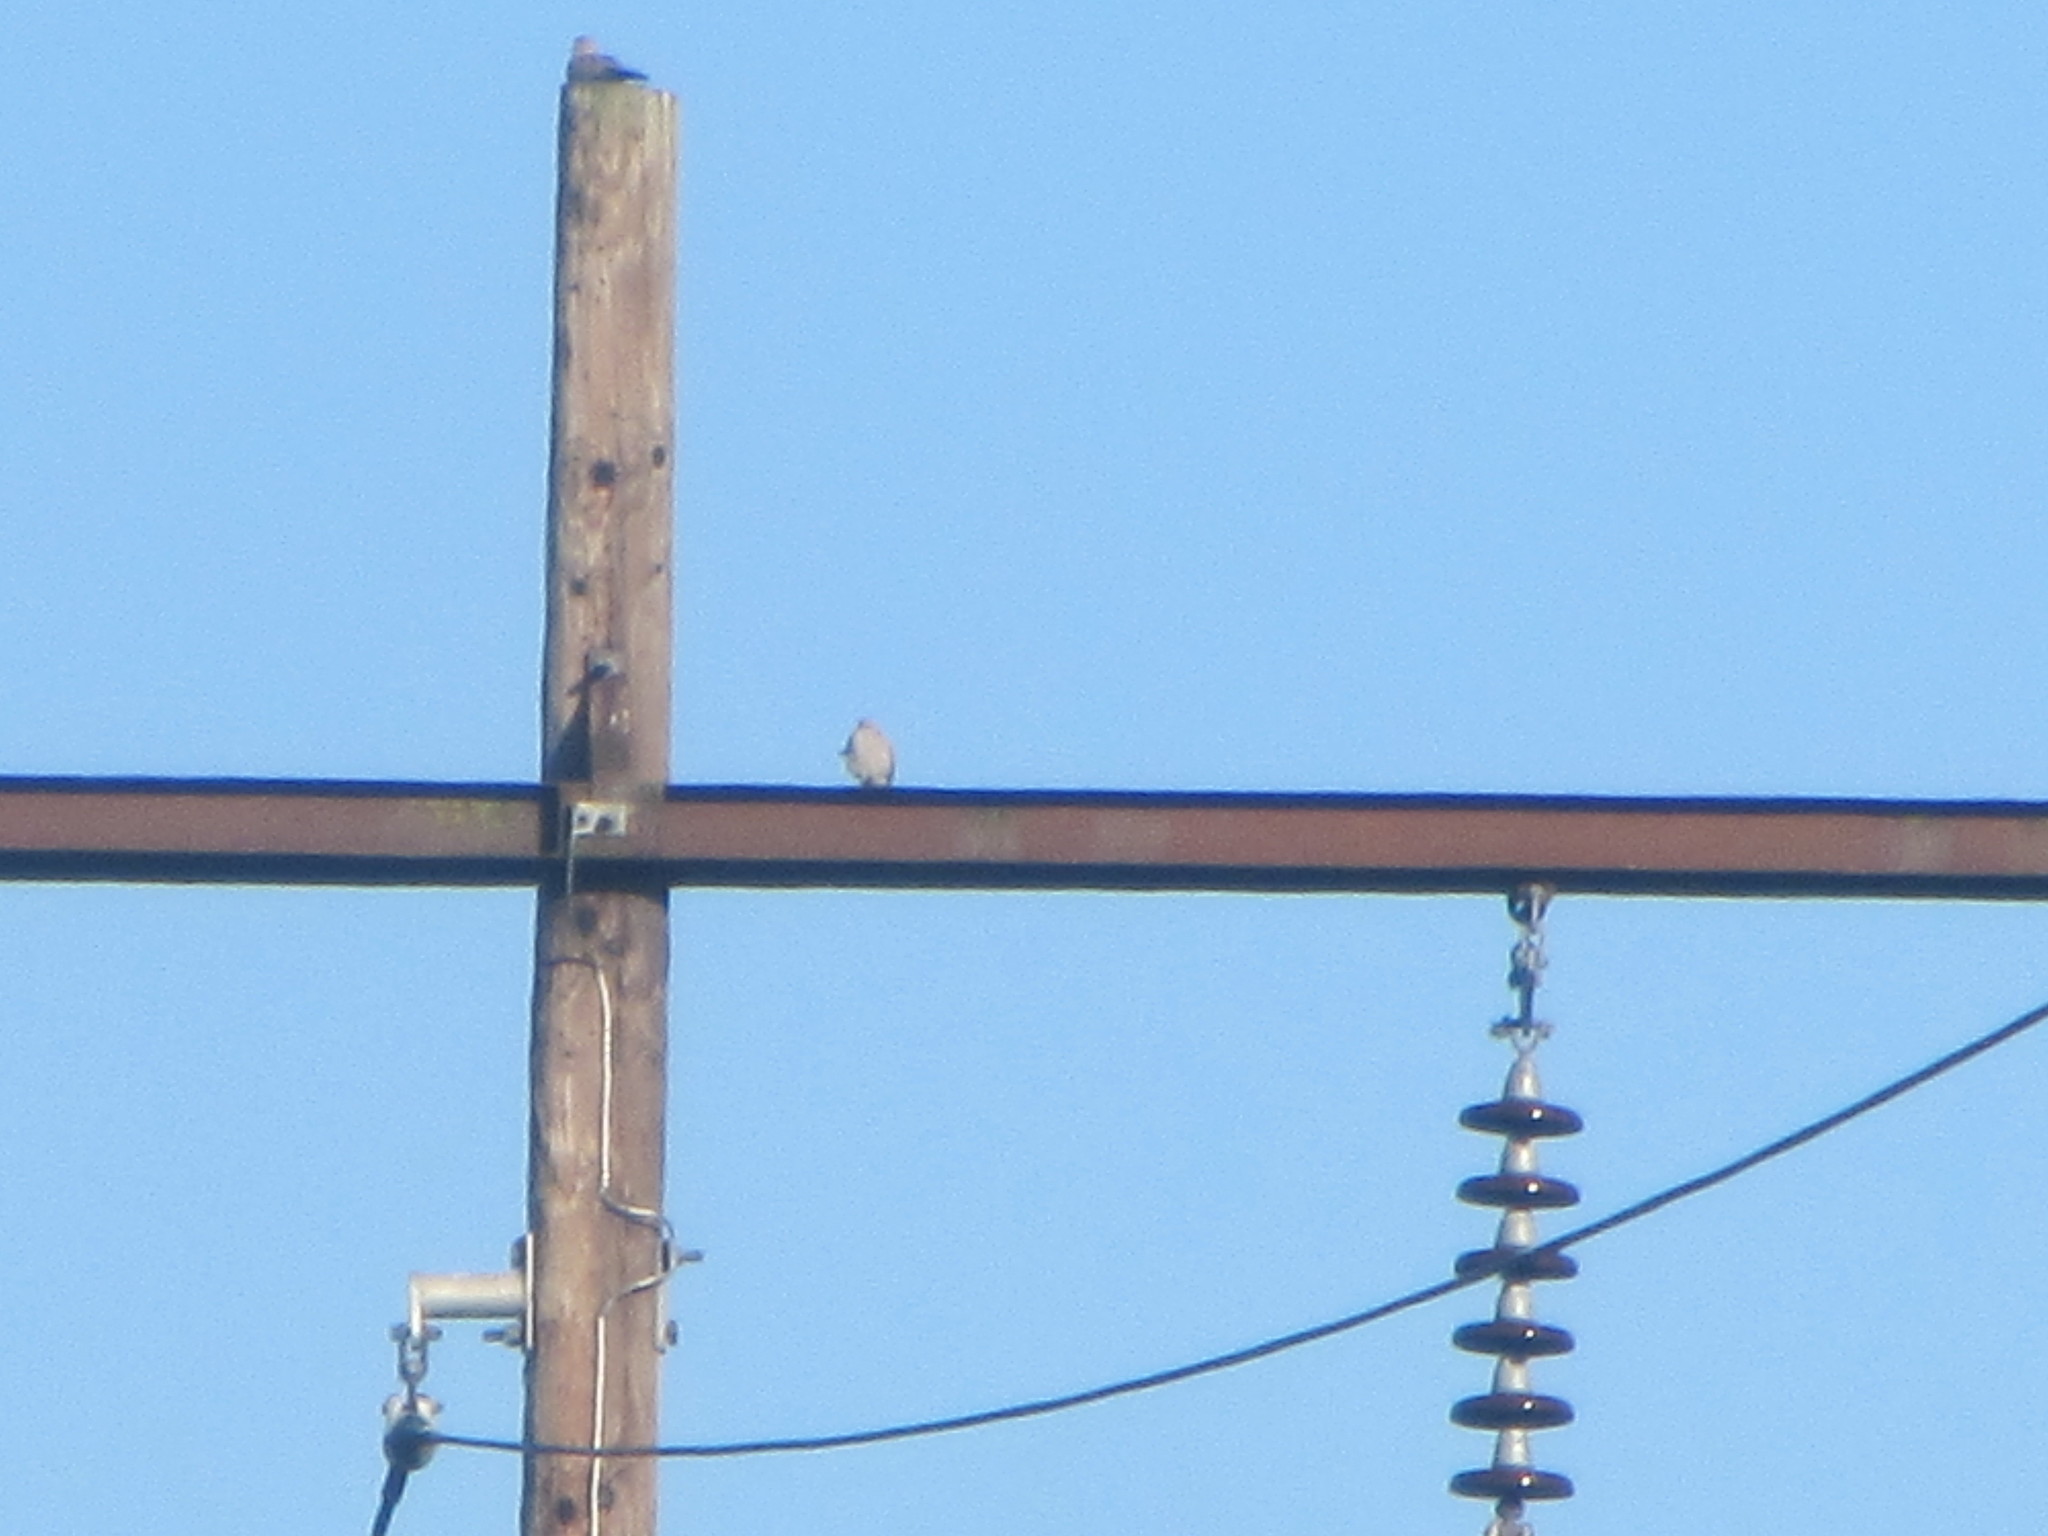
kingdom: Animalia
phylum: Chordata
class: Aves
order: Columbiformes
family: Columbidae
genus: Streptopelia
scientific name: Streptopelia decaocto
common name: Eurasian collared dove
